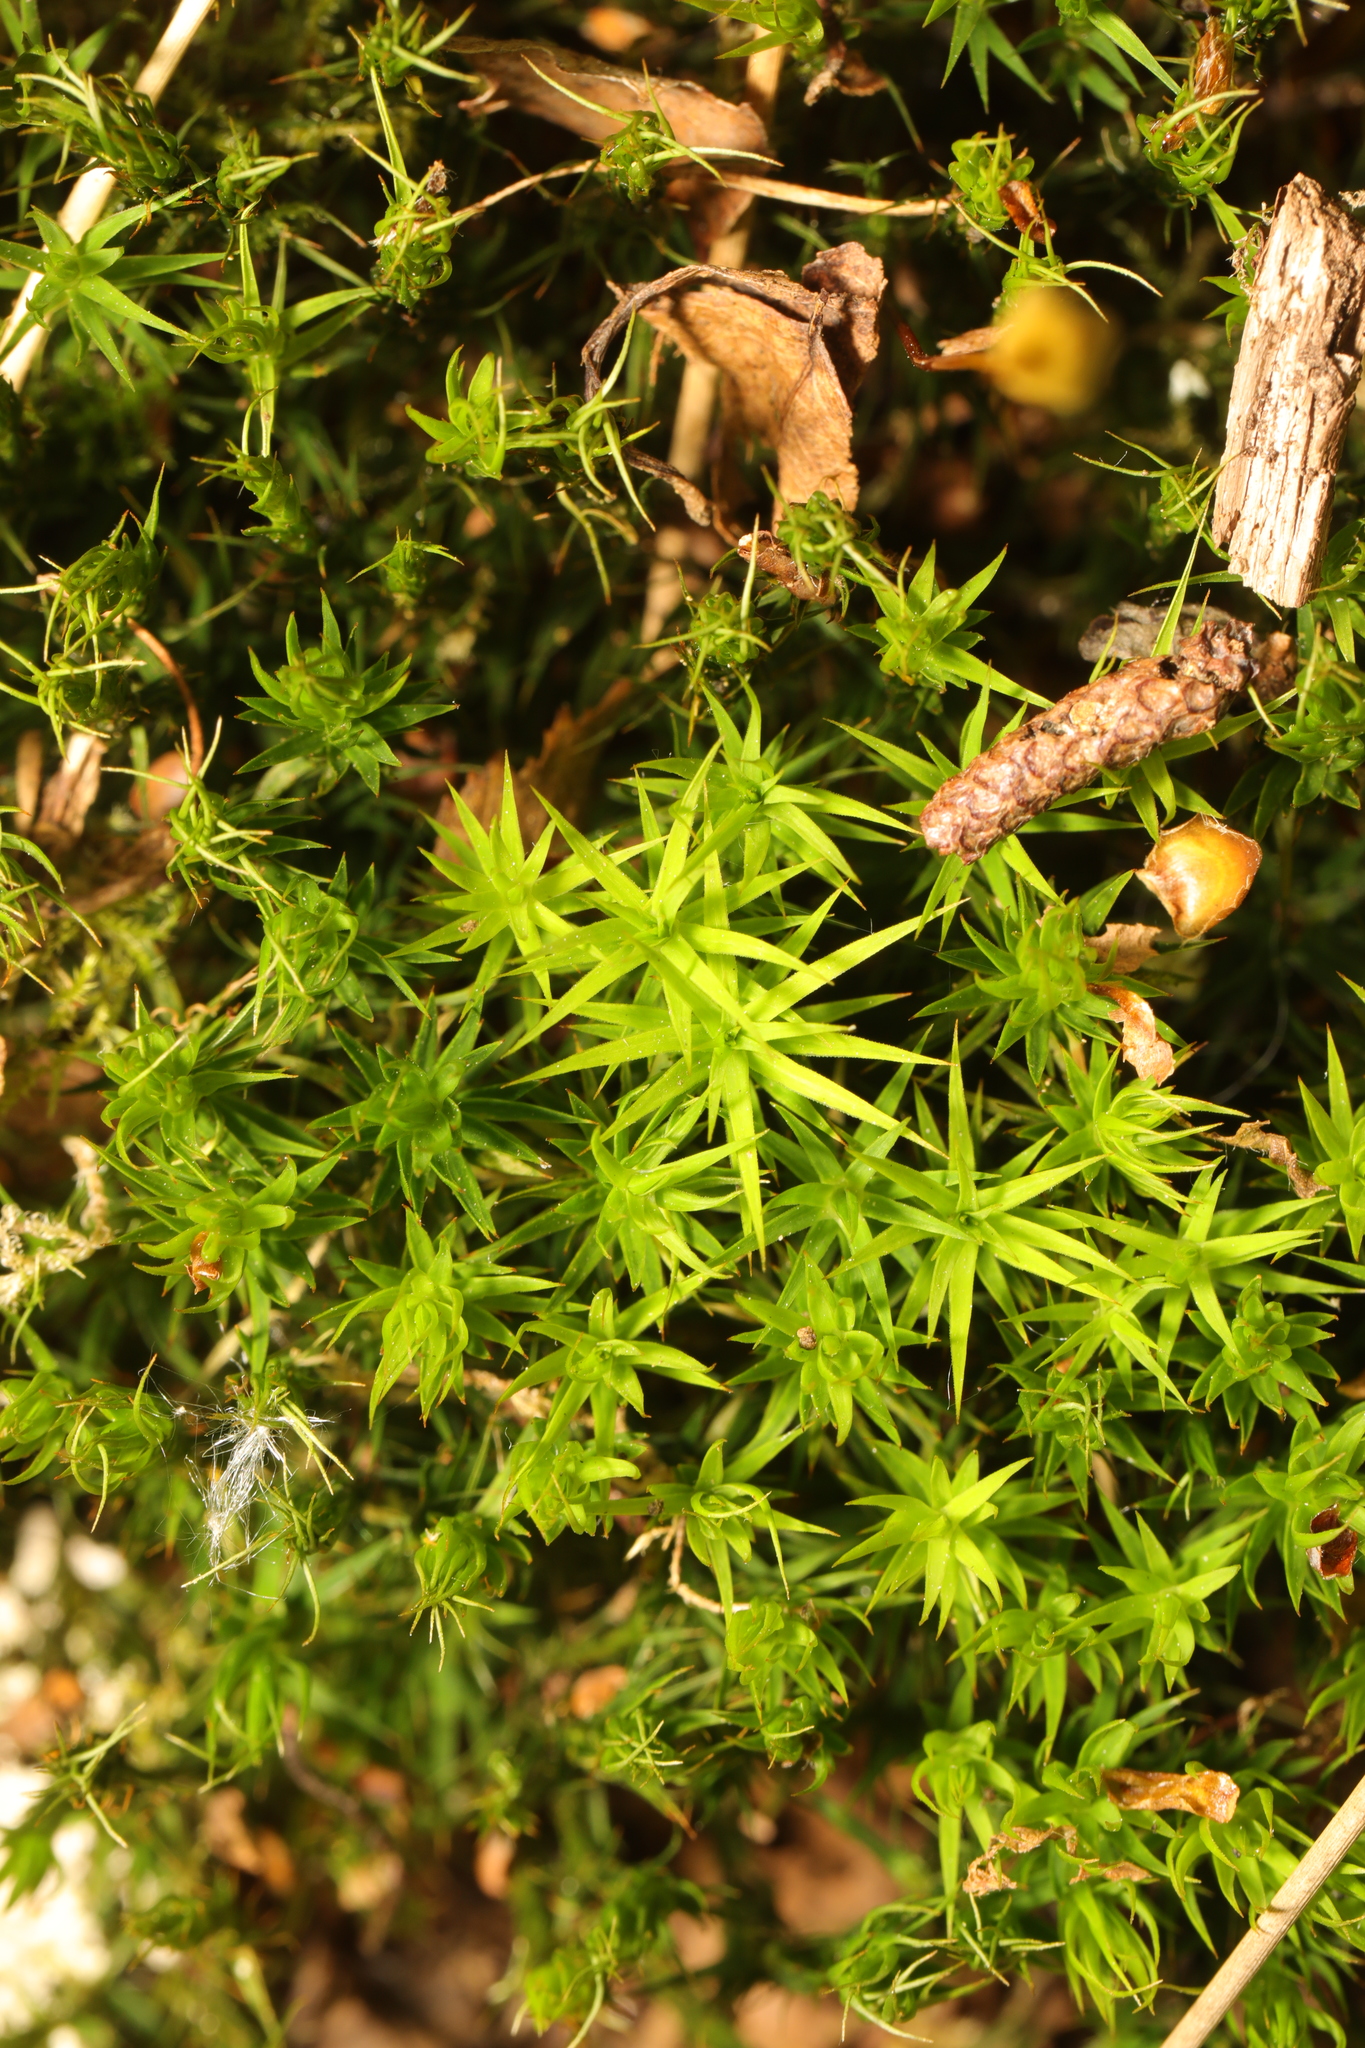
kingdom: Plantae
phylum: Bryophyta
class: Polytrichopsida
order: Polytrichales
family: Polytrichaceae
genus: Polytrichum
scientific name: Polytrichum formosum
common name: Bank haircap moss
